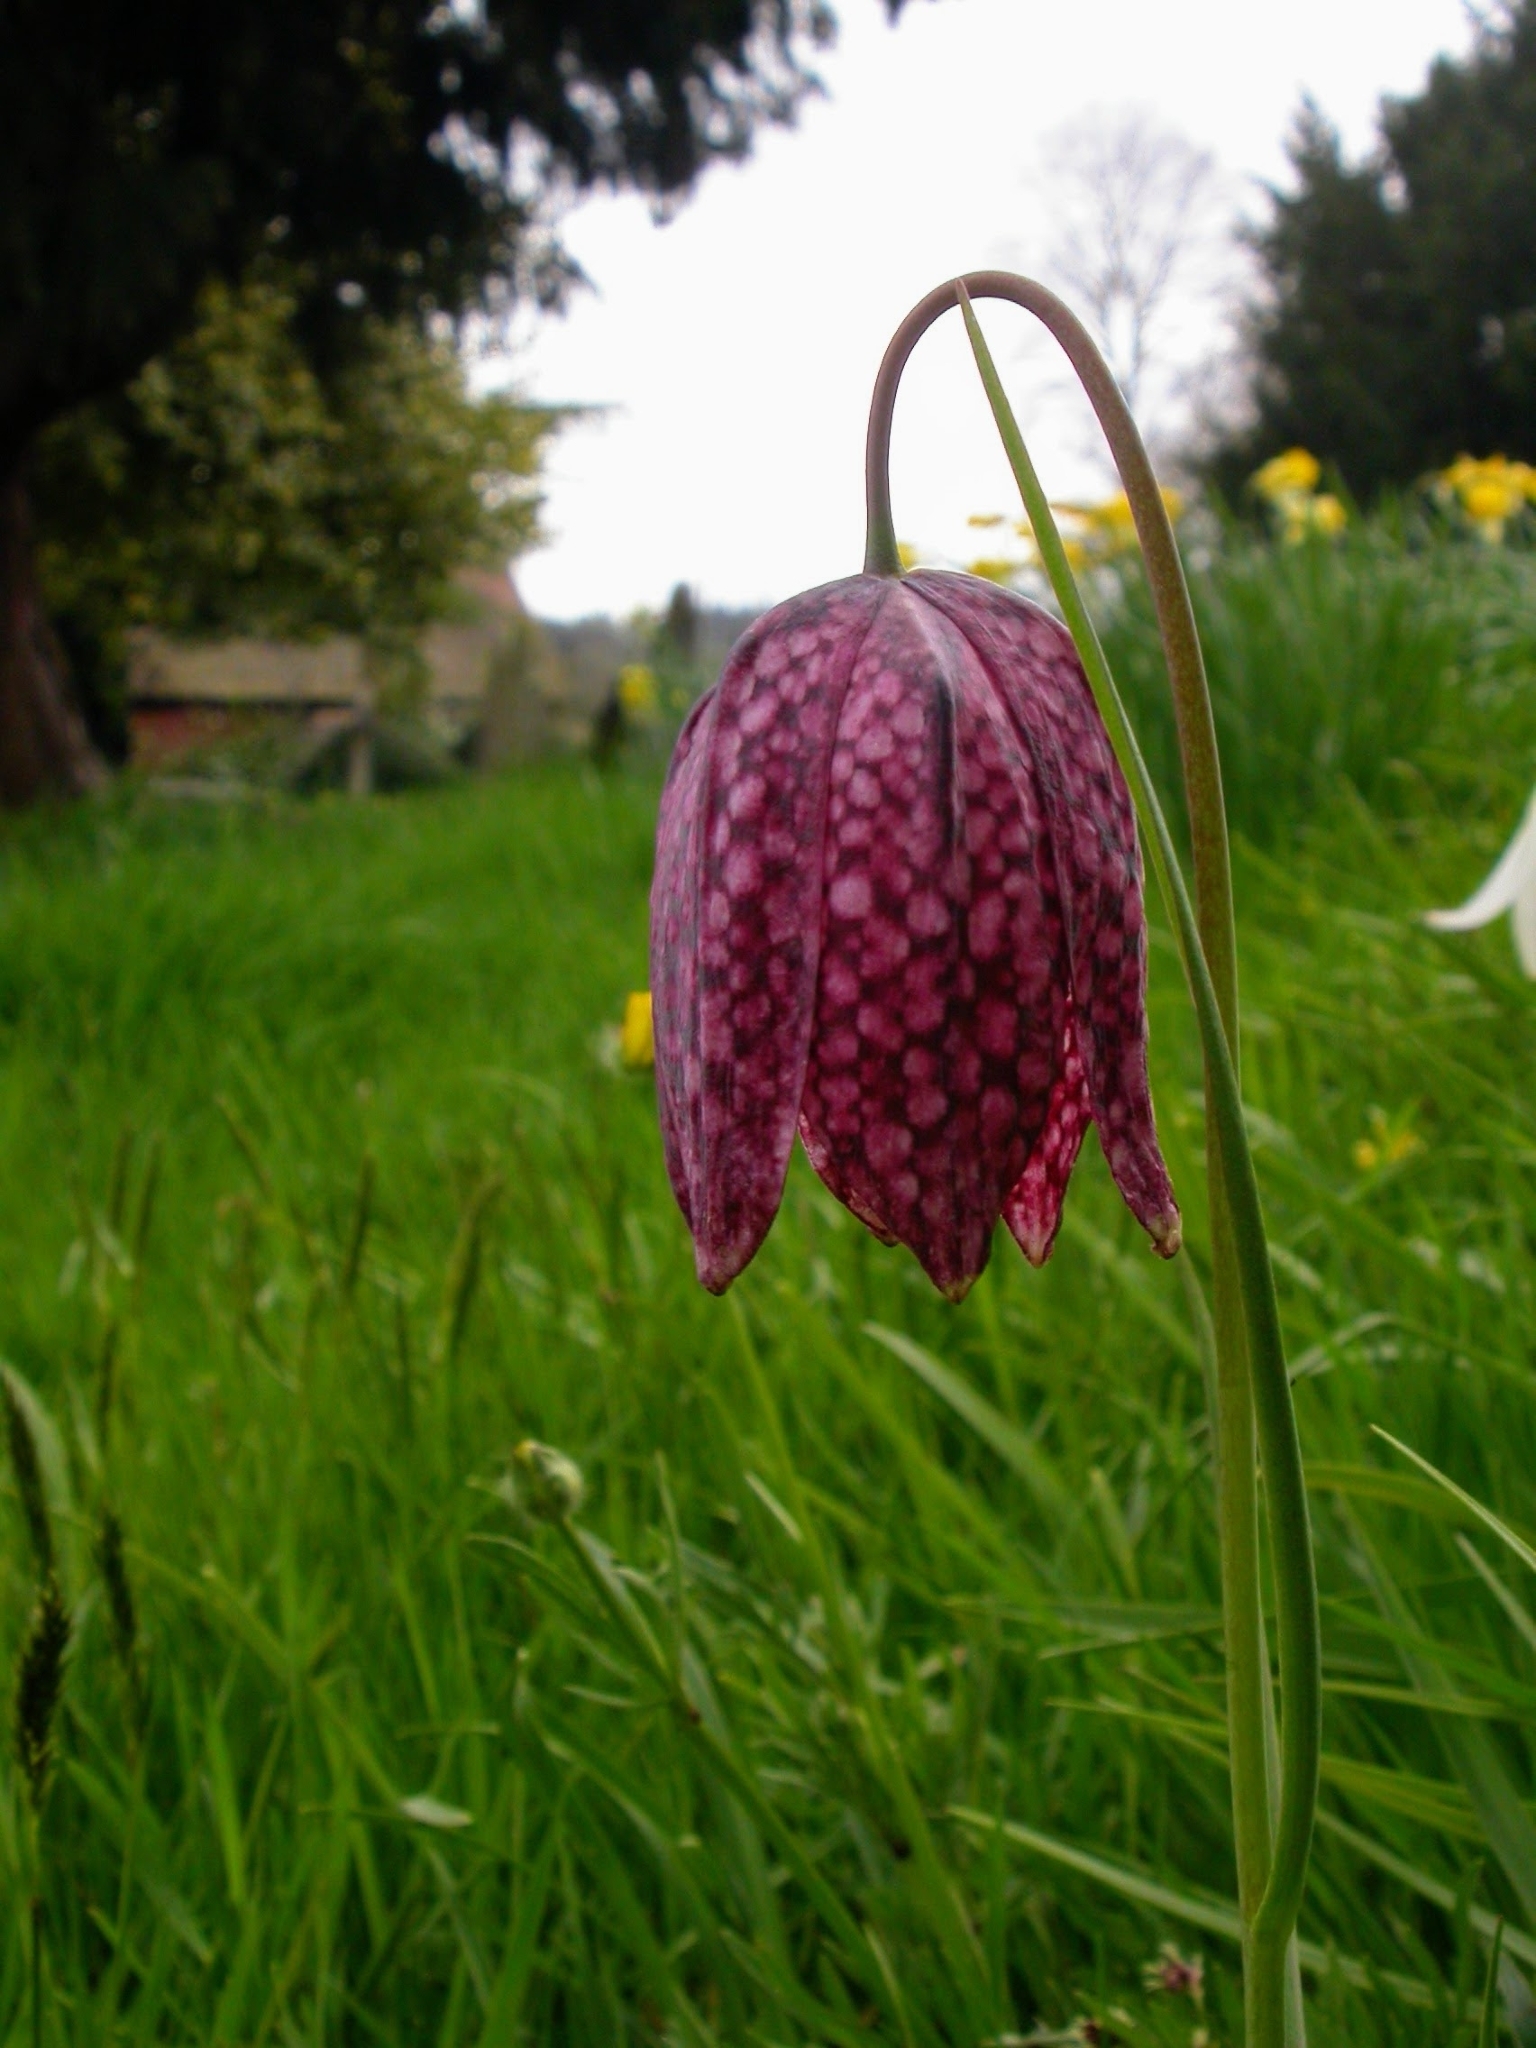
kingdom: Plantae
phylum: Tracheophyta
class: Liliopsida
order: Liliales
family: Liliaceae
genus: Fritillaria
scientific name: Fritillaria meleagris
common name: Fritillary
